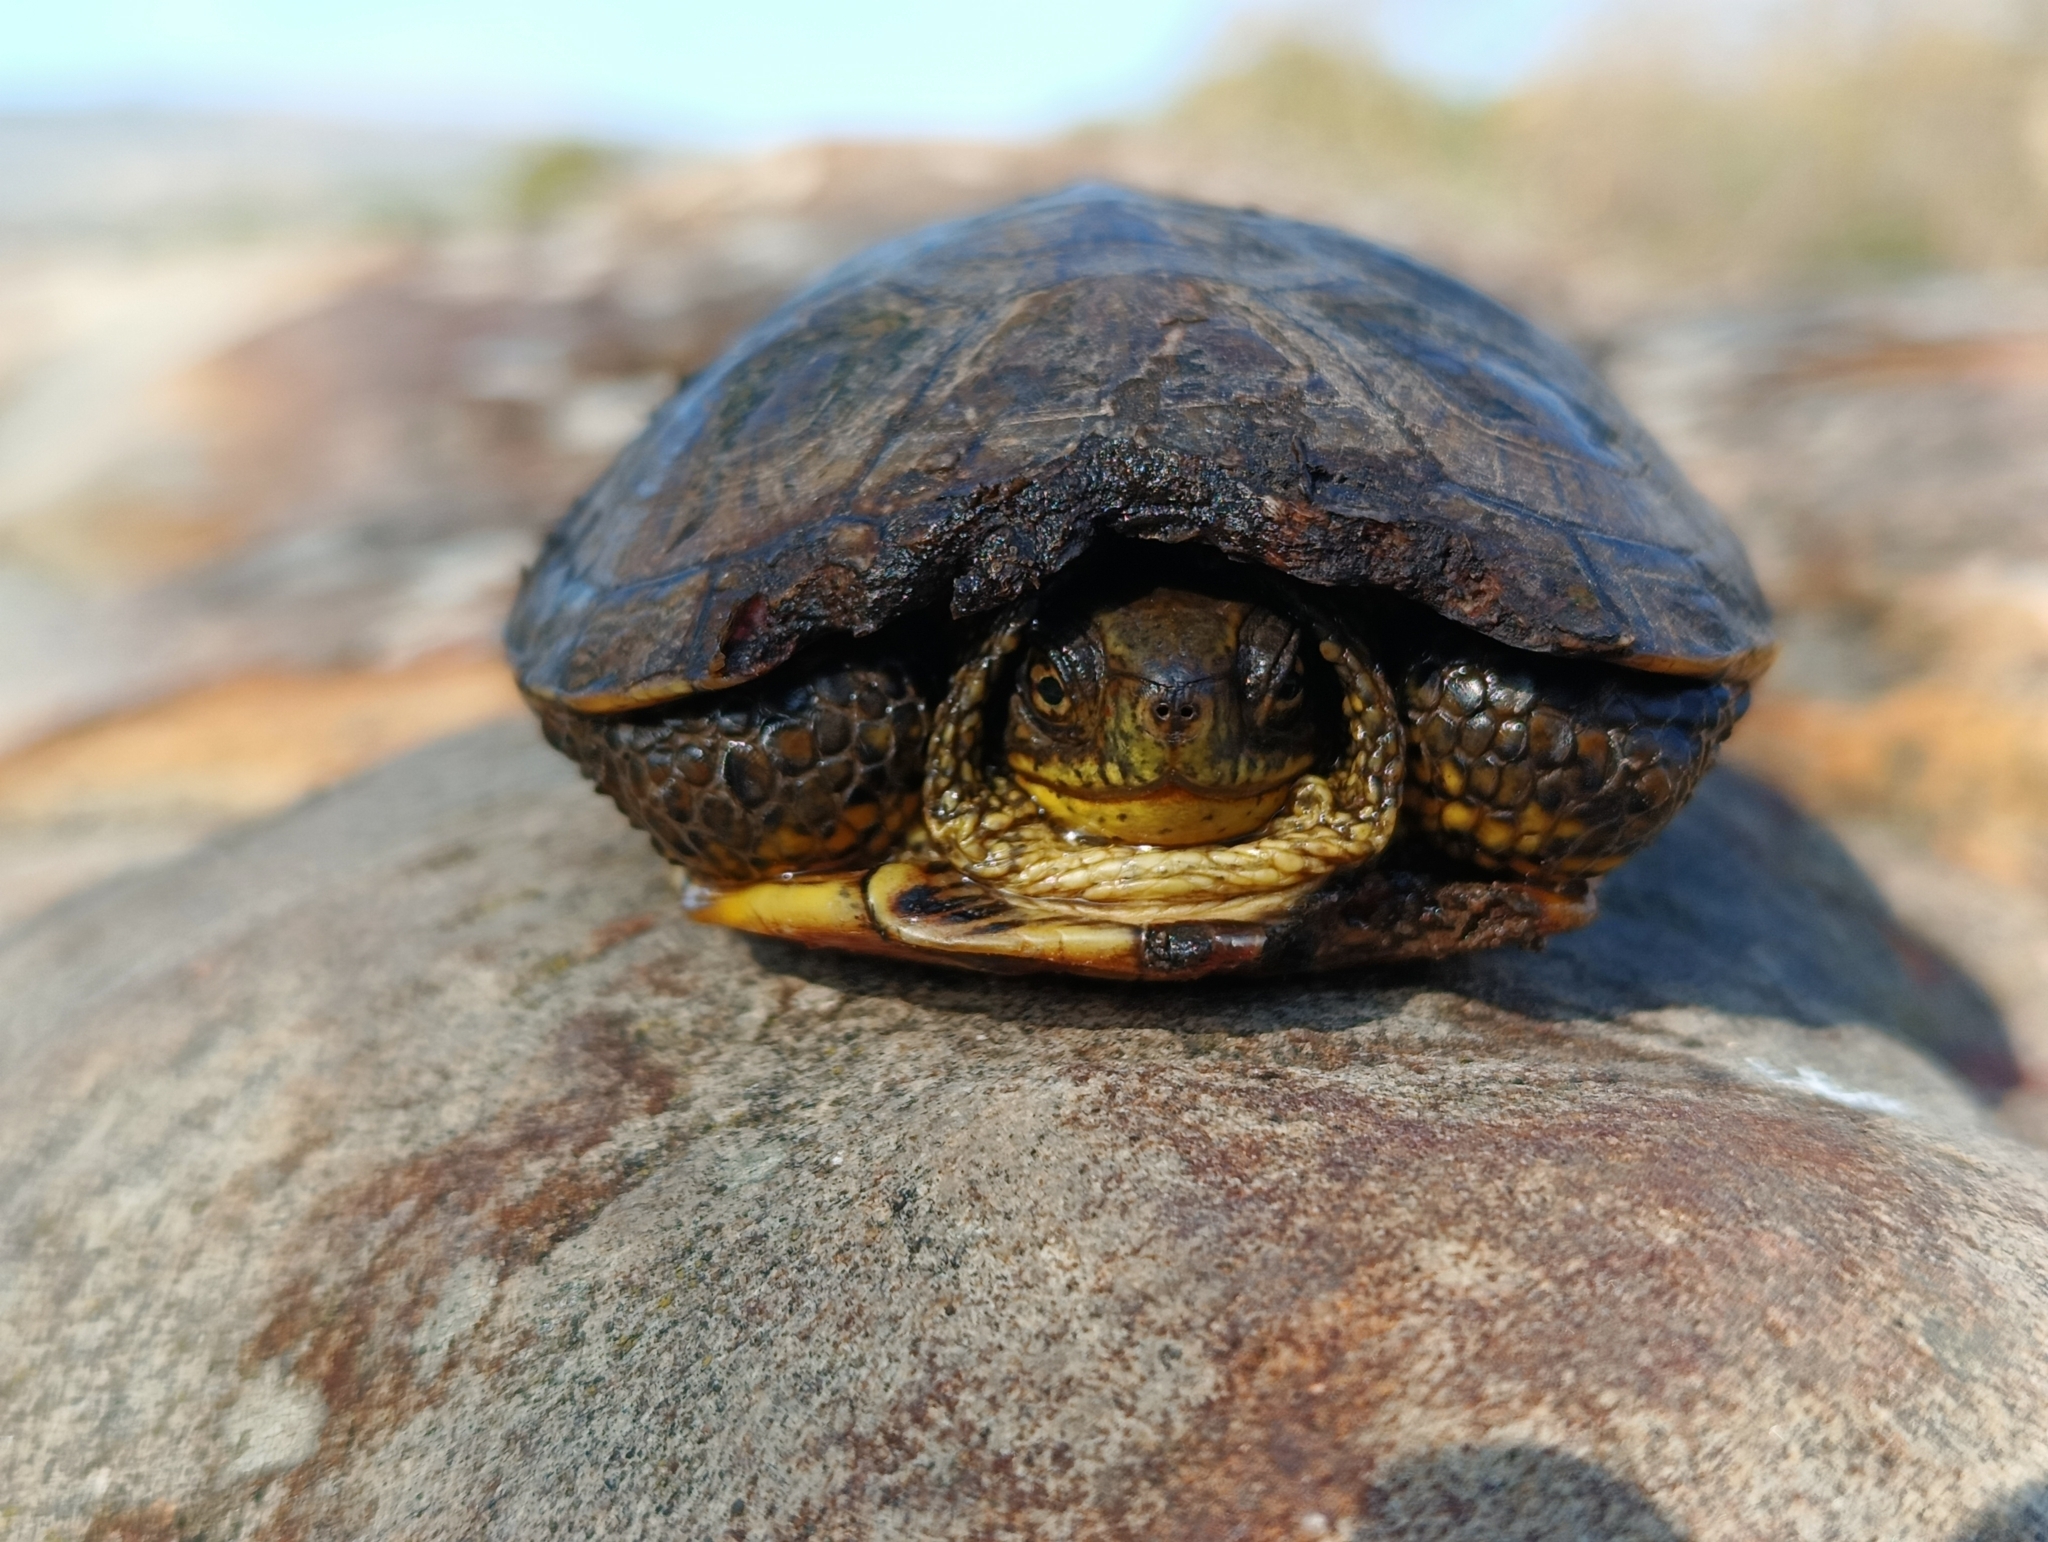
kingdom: Animalia
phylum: Chordata
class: Testudines
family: Emydidae
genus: Emys
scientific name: Emys orbicularis
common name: European pond turtle
